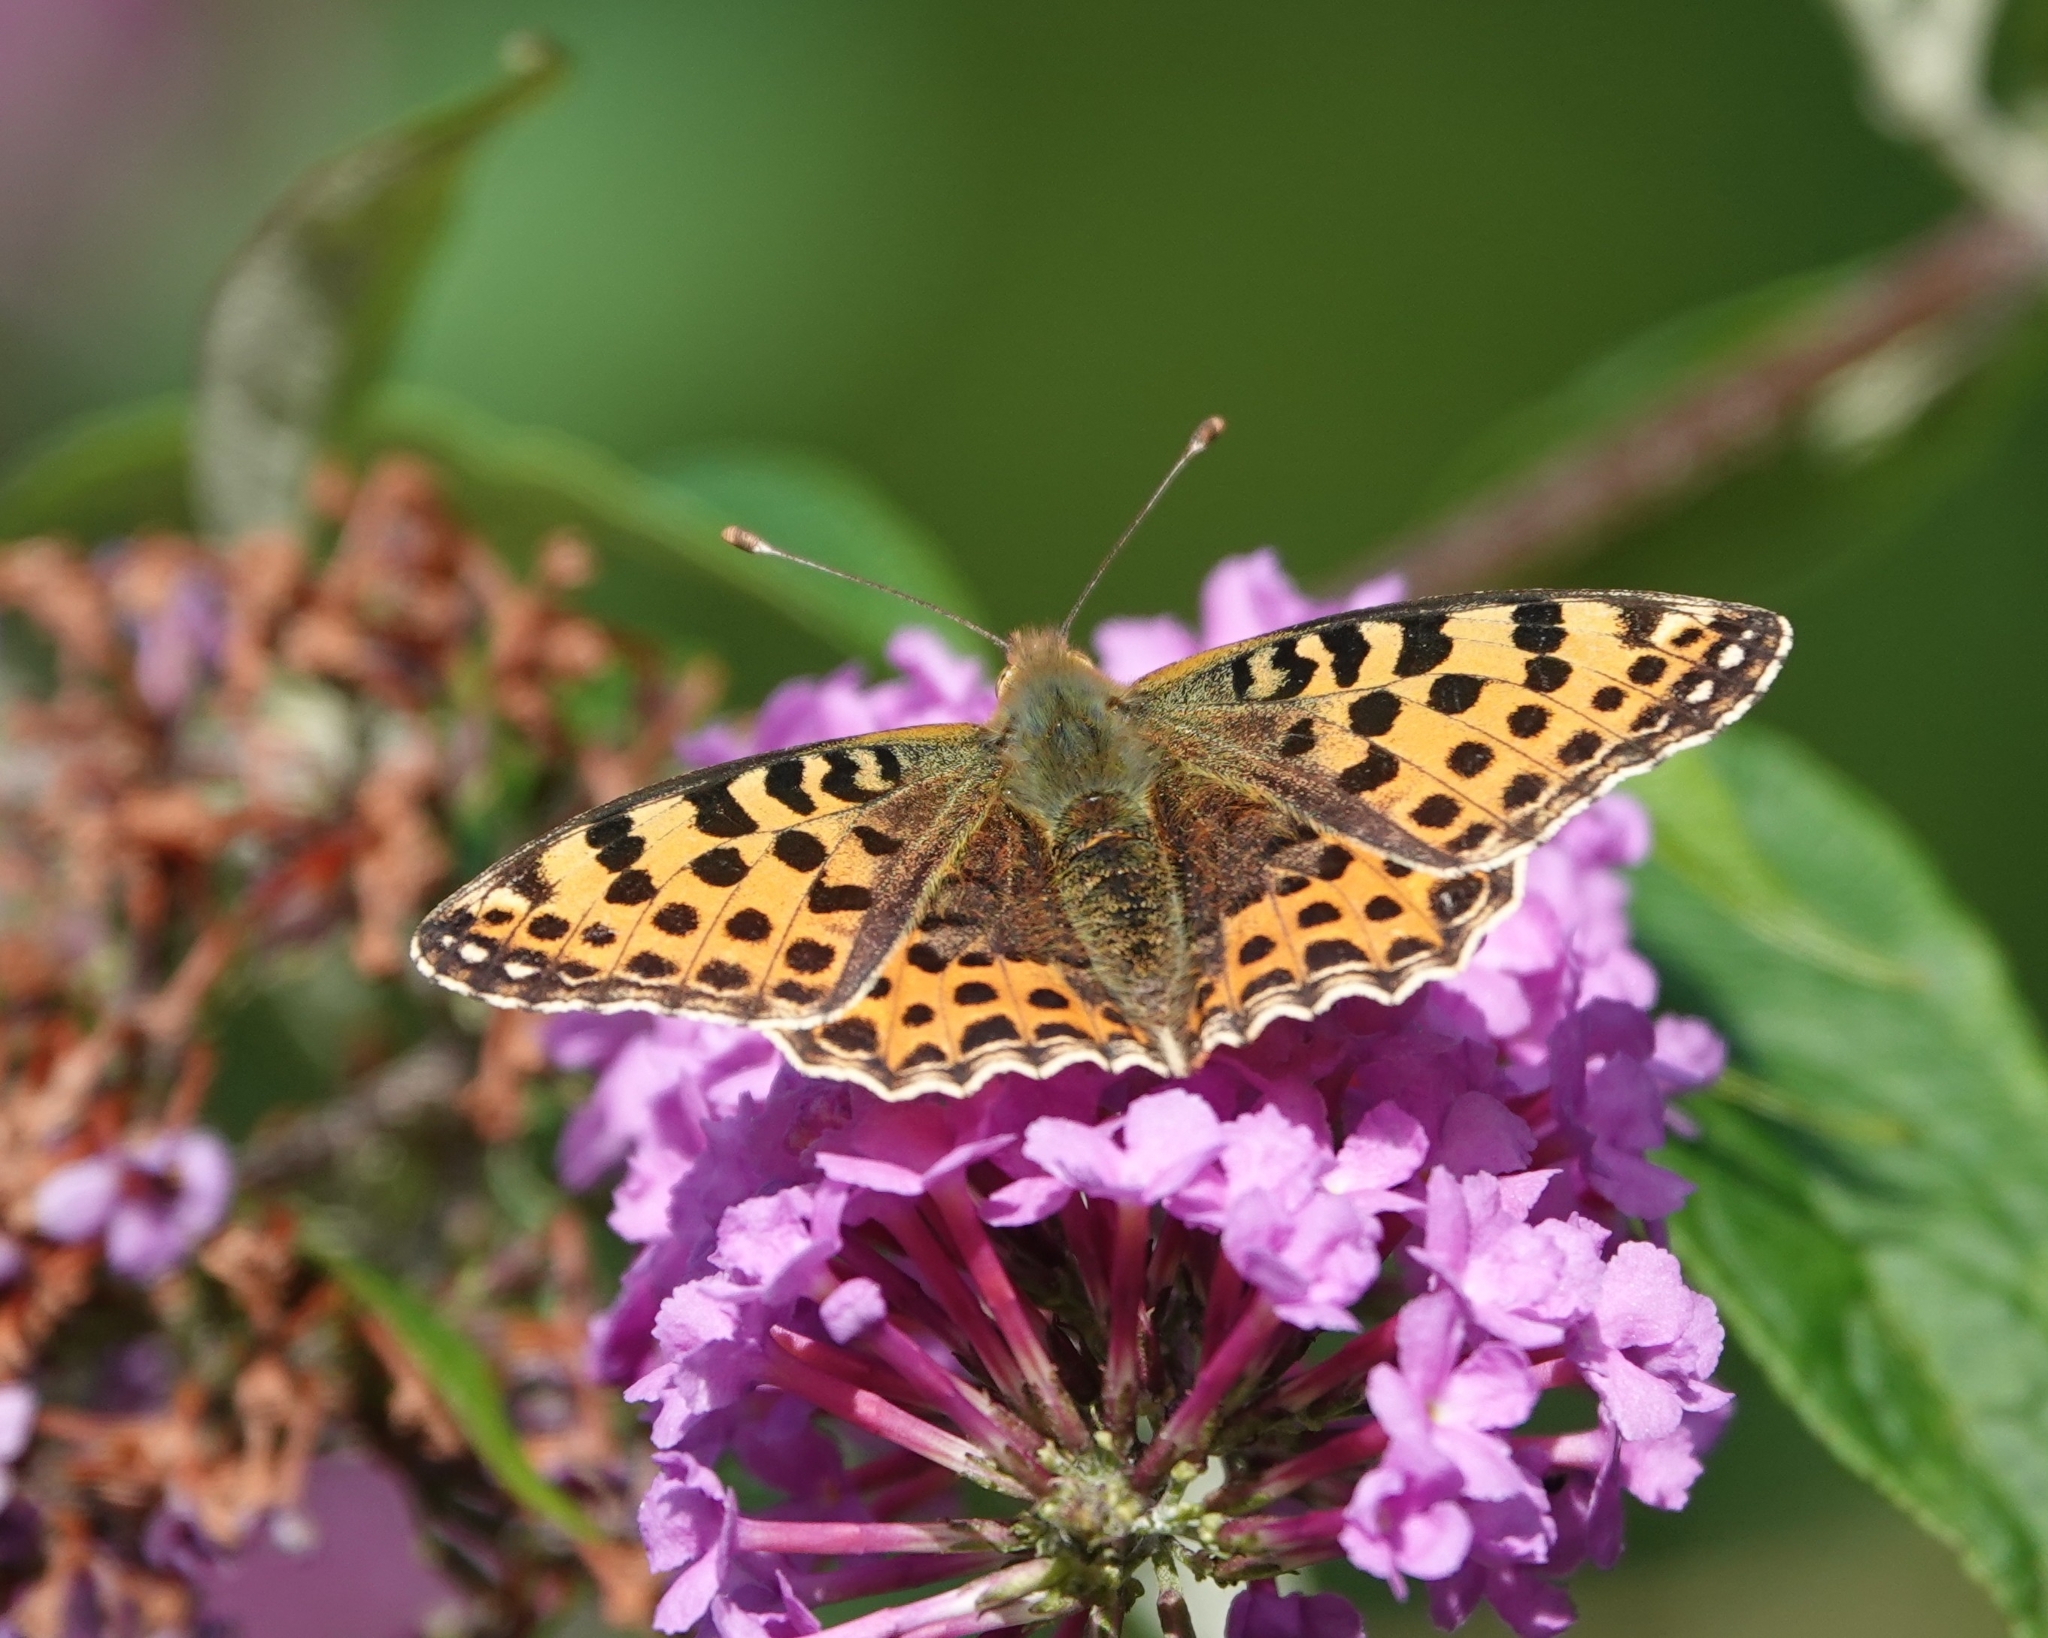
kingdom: Animalia
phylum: Arthropoda
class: Insecta
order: Lepidoptera
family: Nymphalidae
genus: Issoria
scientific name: Issoria lathonia
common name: Queen of spain fritillary
